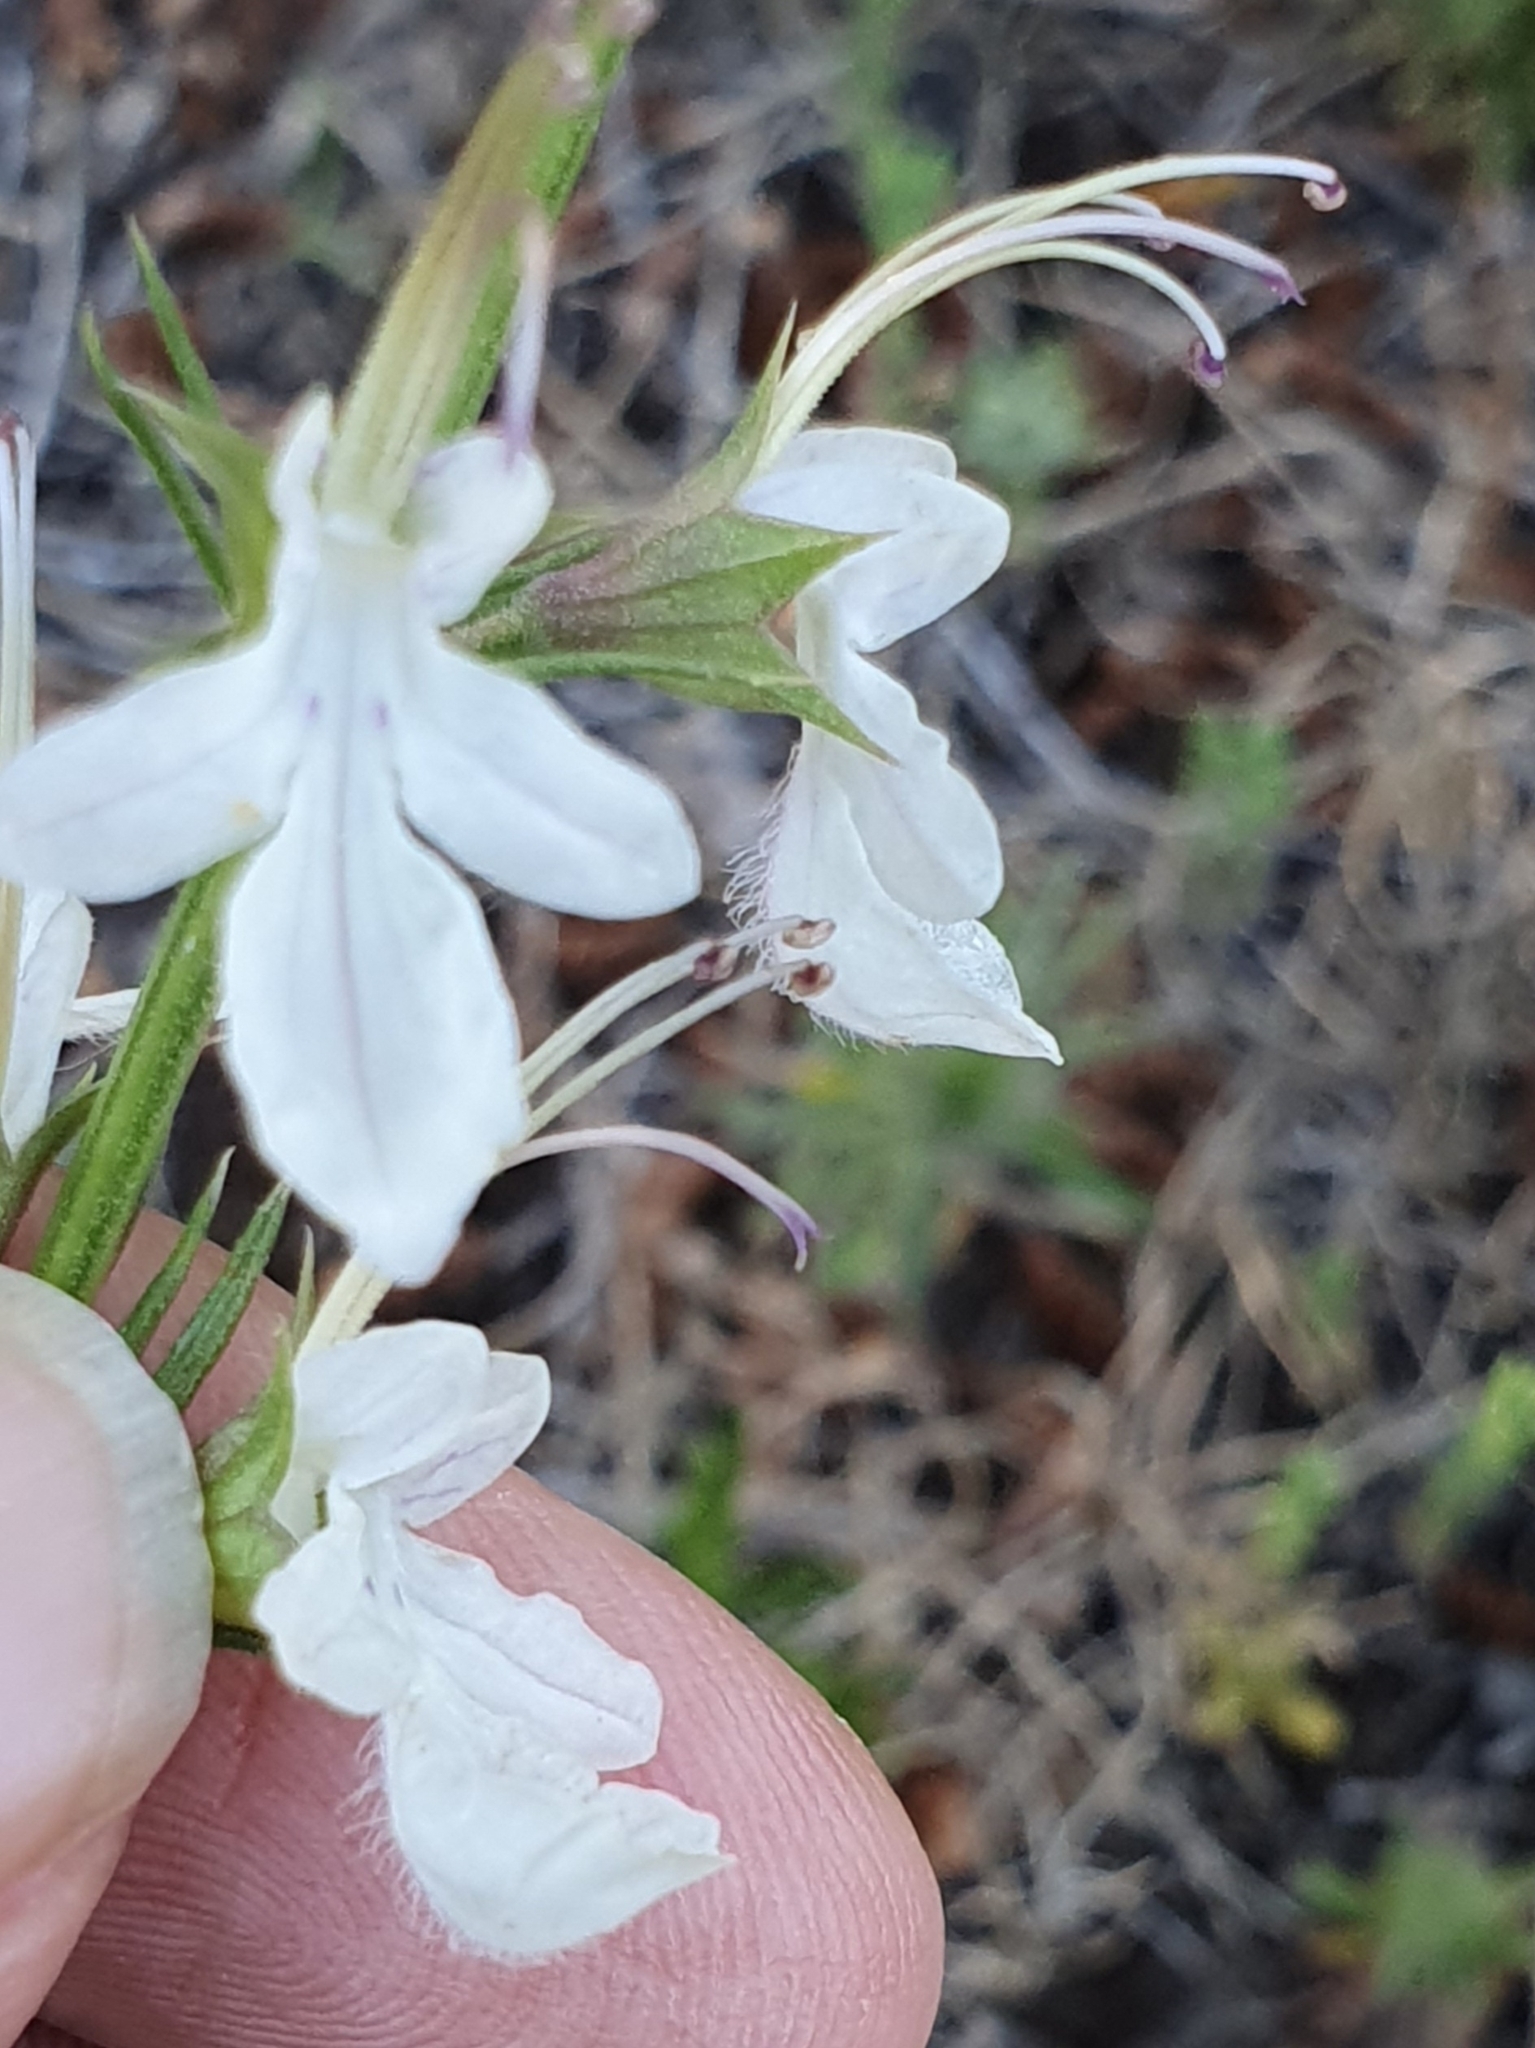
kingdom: Plantae
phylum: Tracheophyta
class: Magnoliopsida
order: Lamiales
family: Lamiaceae
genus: Teucrium
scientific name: Teucrium pseudochamaepitys
